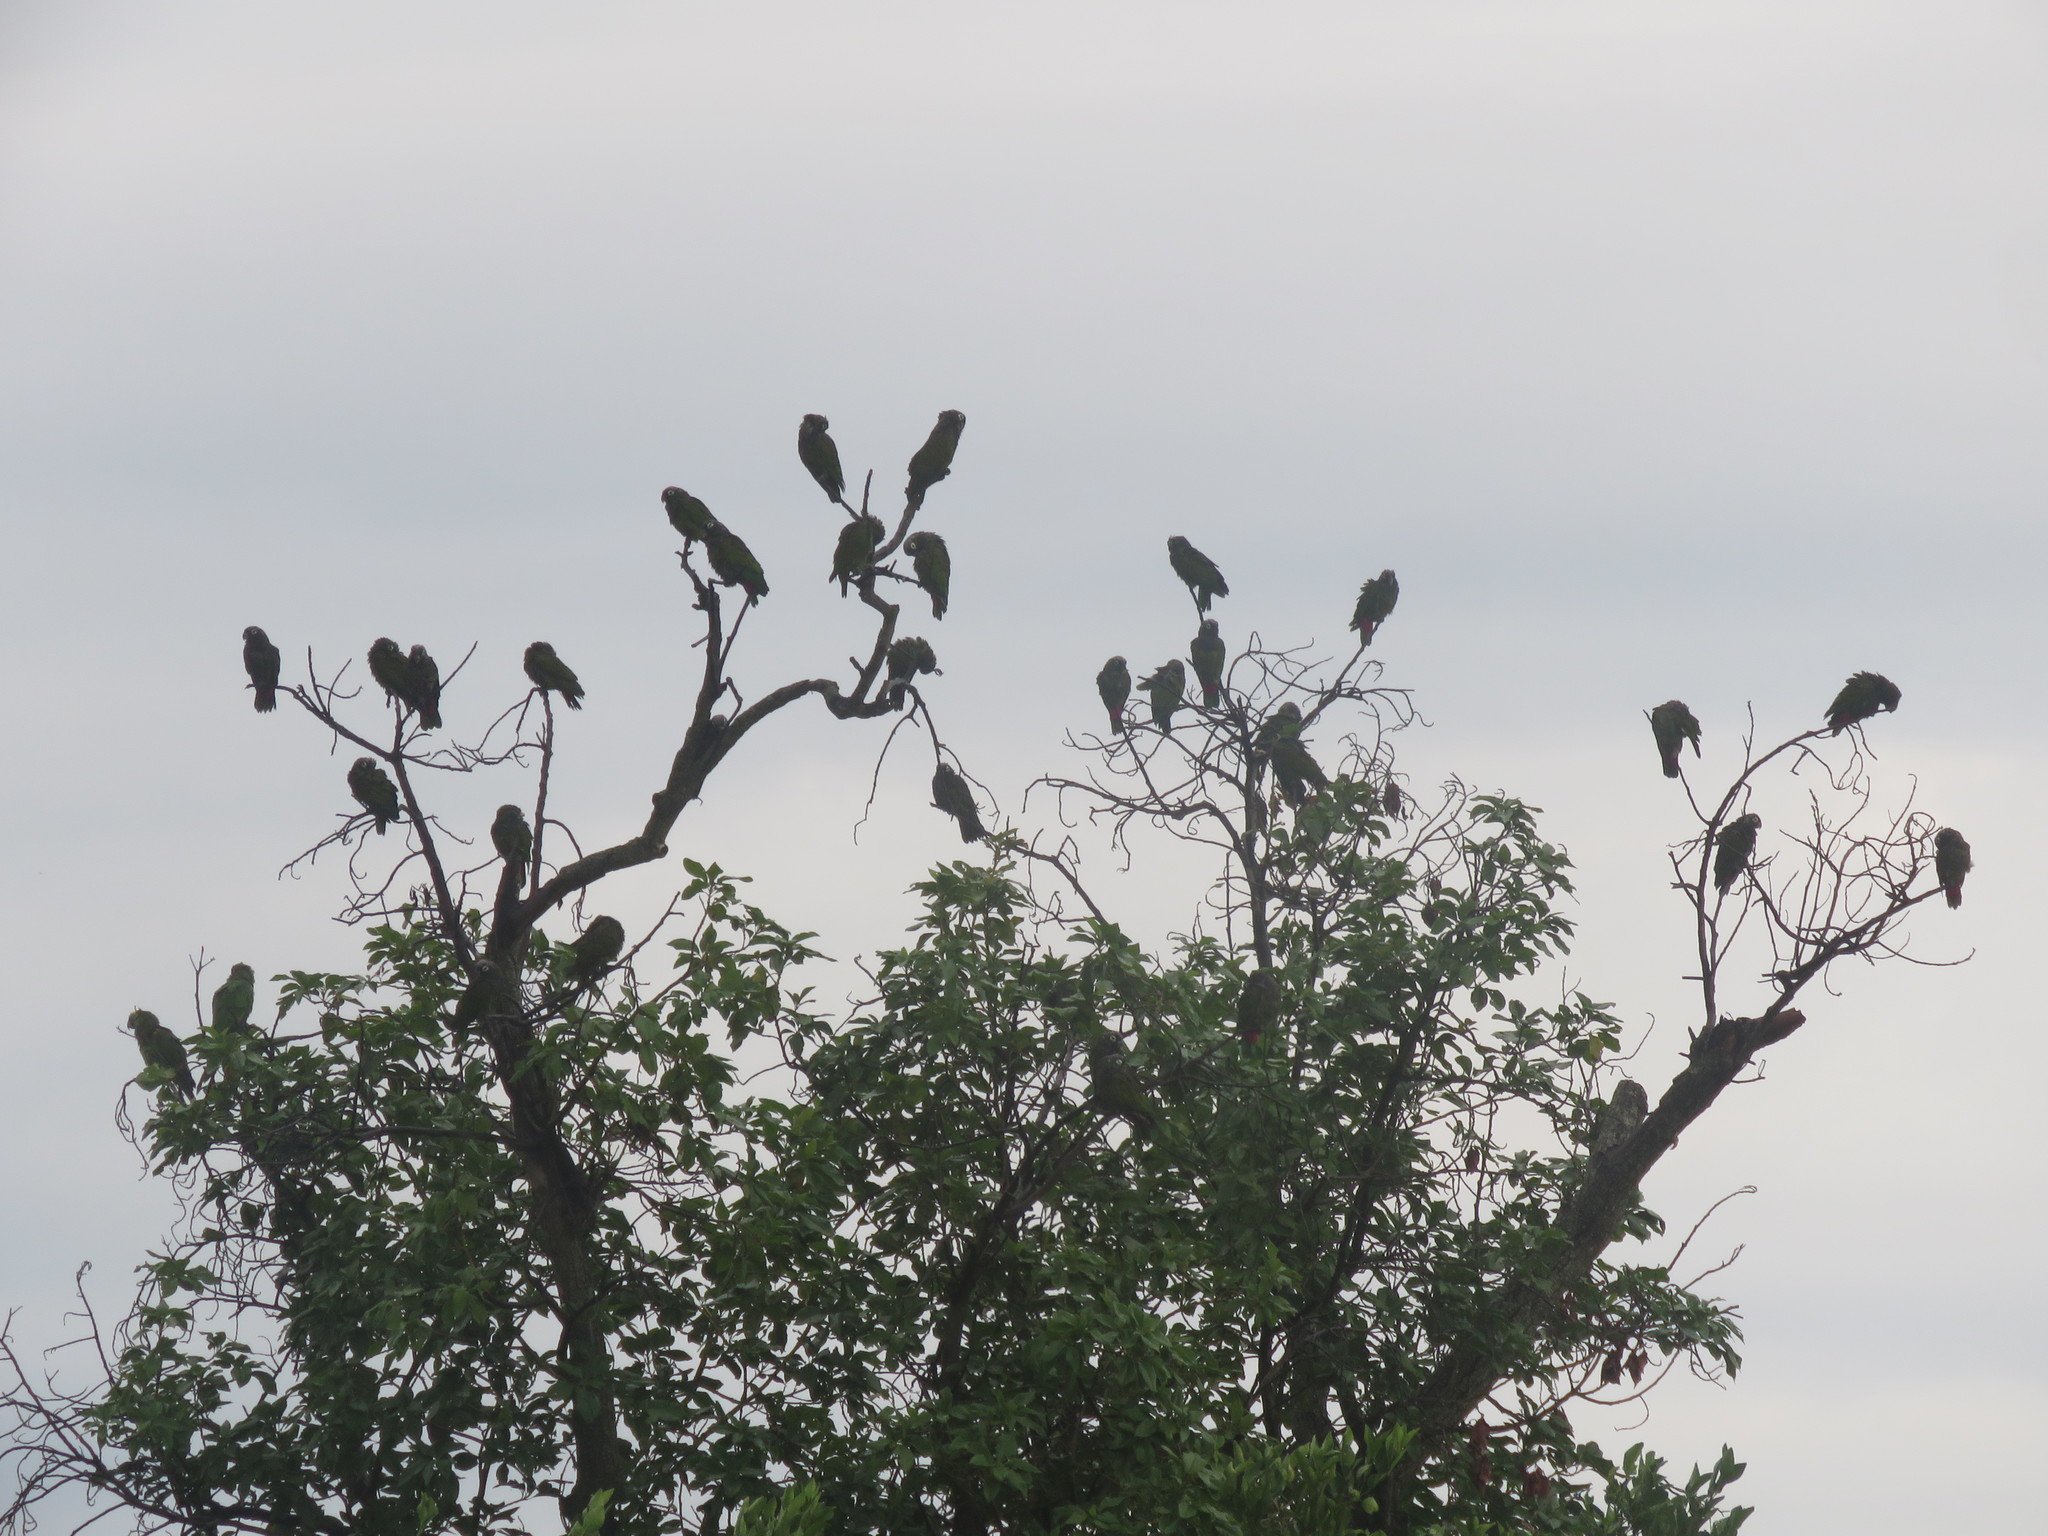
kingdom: Animalia
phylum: Chordata
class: Aves
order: Psittaciformes
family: Psittacidae
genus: Pionus
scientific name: Pionus maximiliani
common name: Scaly-headed parrot
